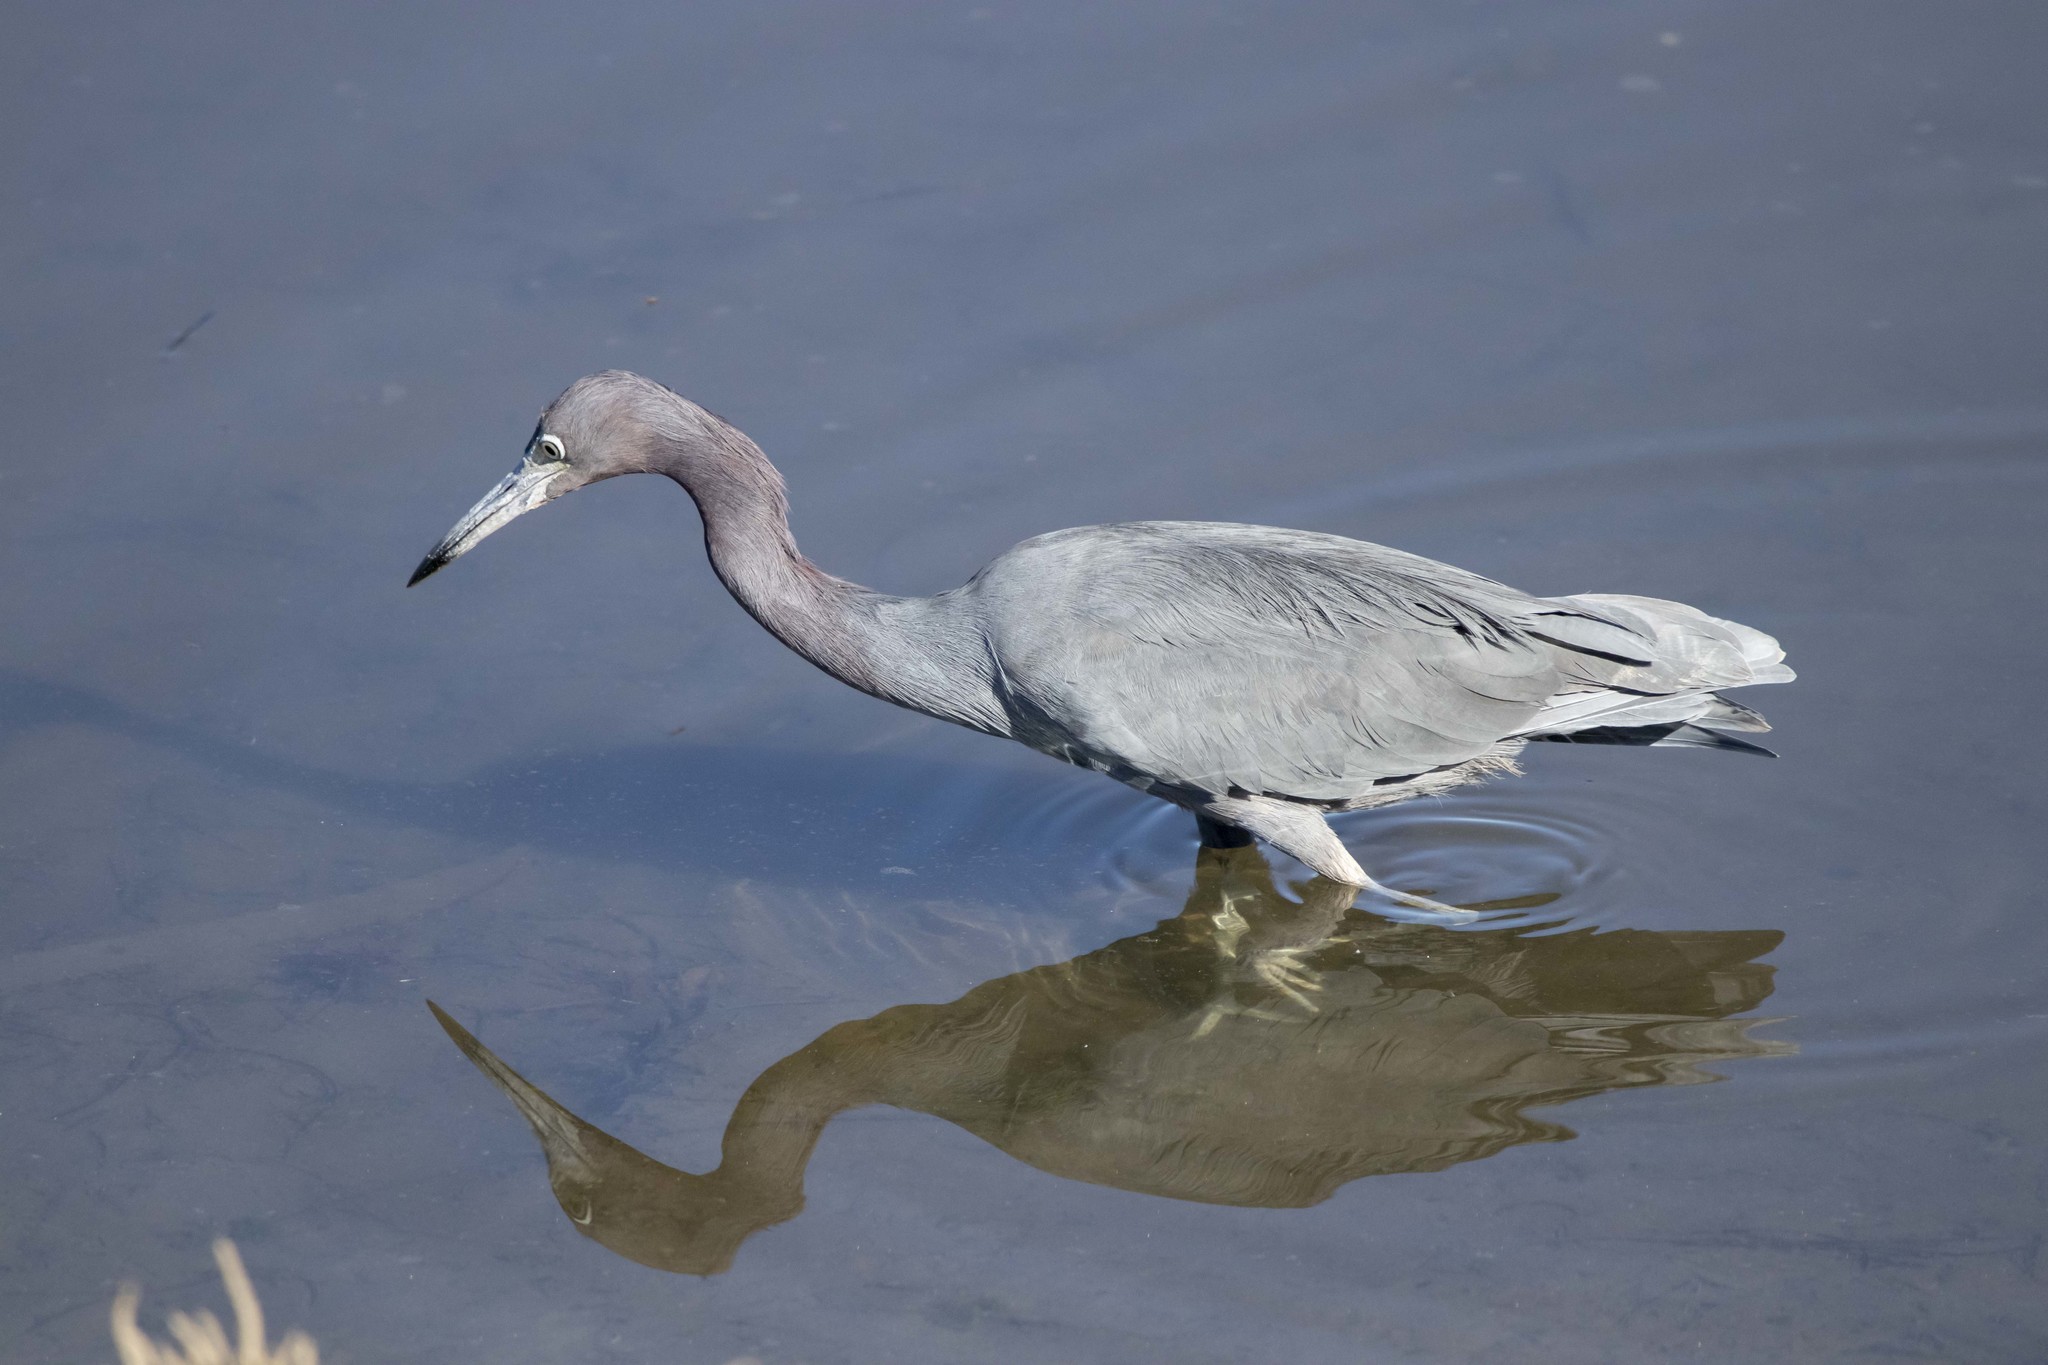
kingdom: Animalia
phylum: Chordata
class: Aves
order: Pelecaniformes
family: Ardeidae
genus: Egretta
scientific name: Egretta caerulea
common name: Little blue heron
